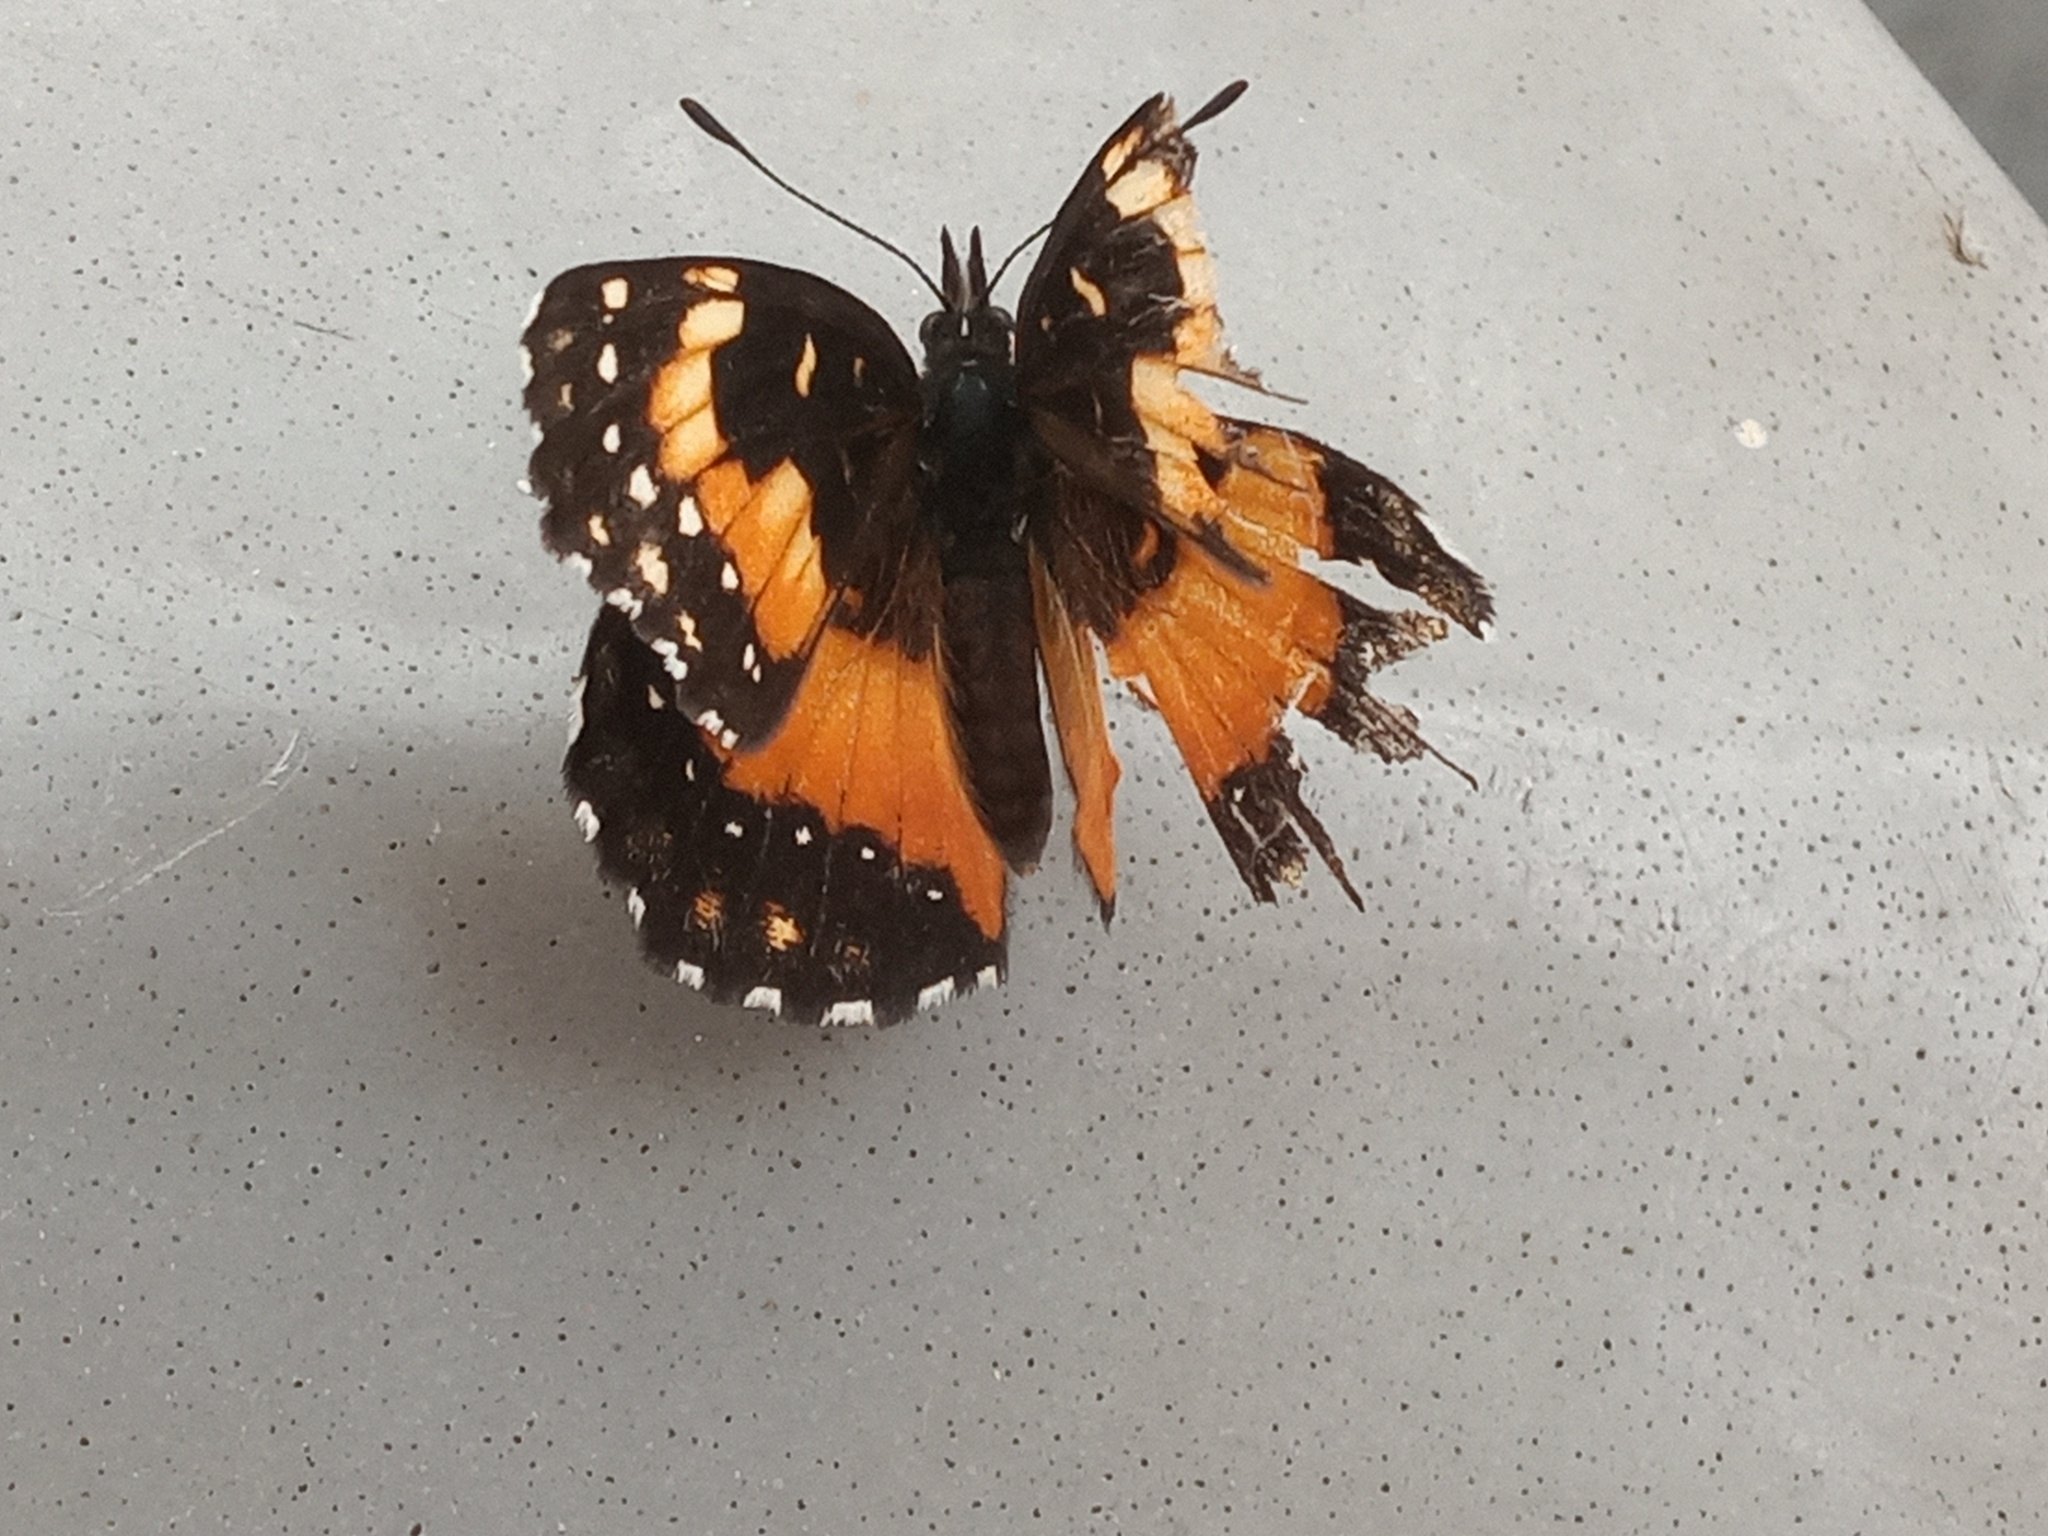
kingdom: Animalia
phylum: Arthropoda
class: Insecta
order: Lepidoptera
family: Nymphalidae
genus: Chlosyne
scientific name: Chlosyne lacinia
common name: Bordered patch
